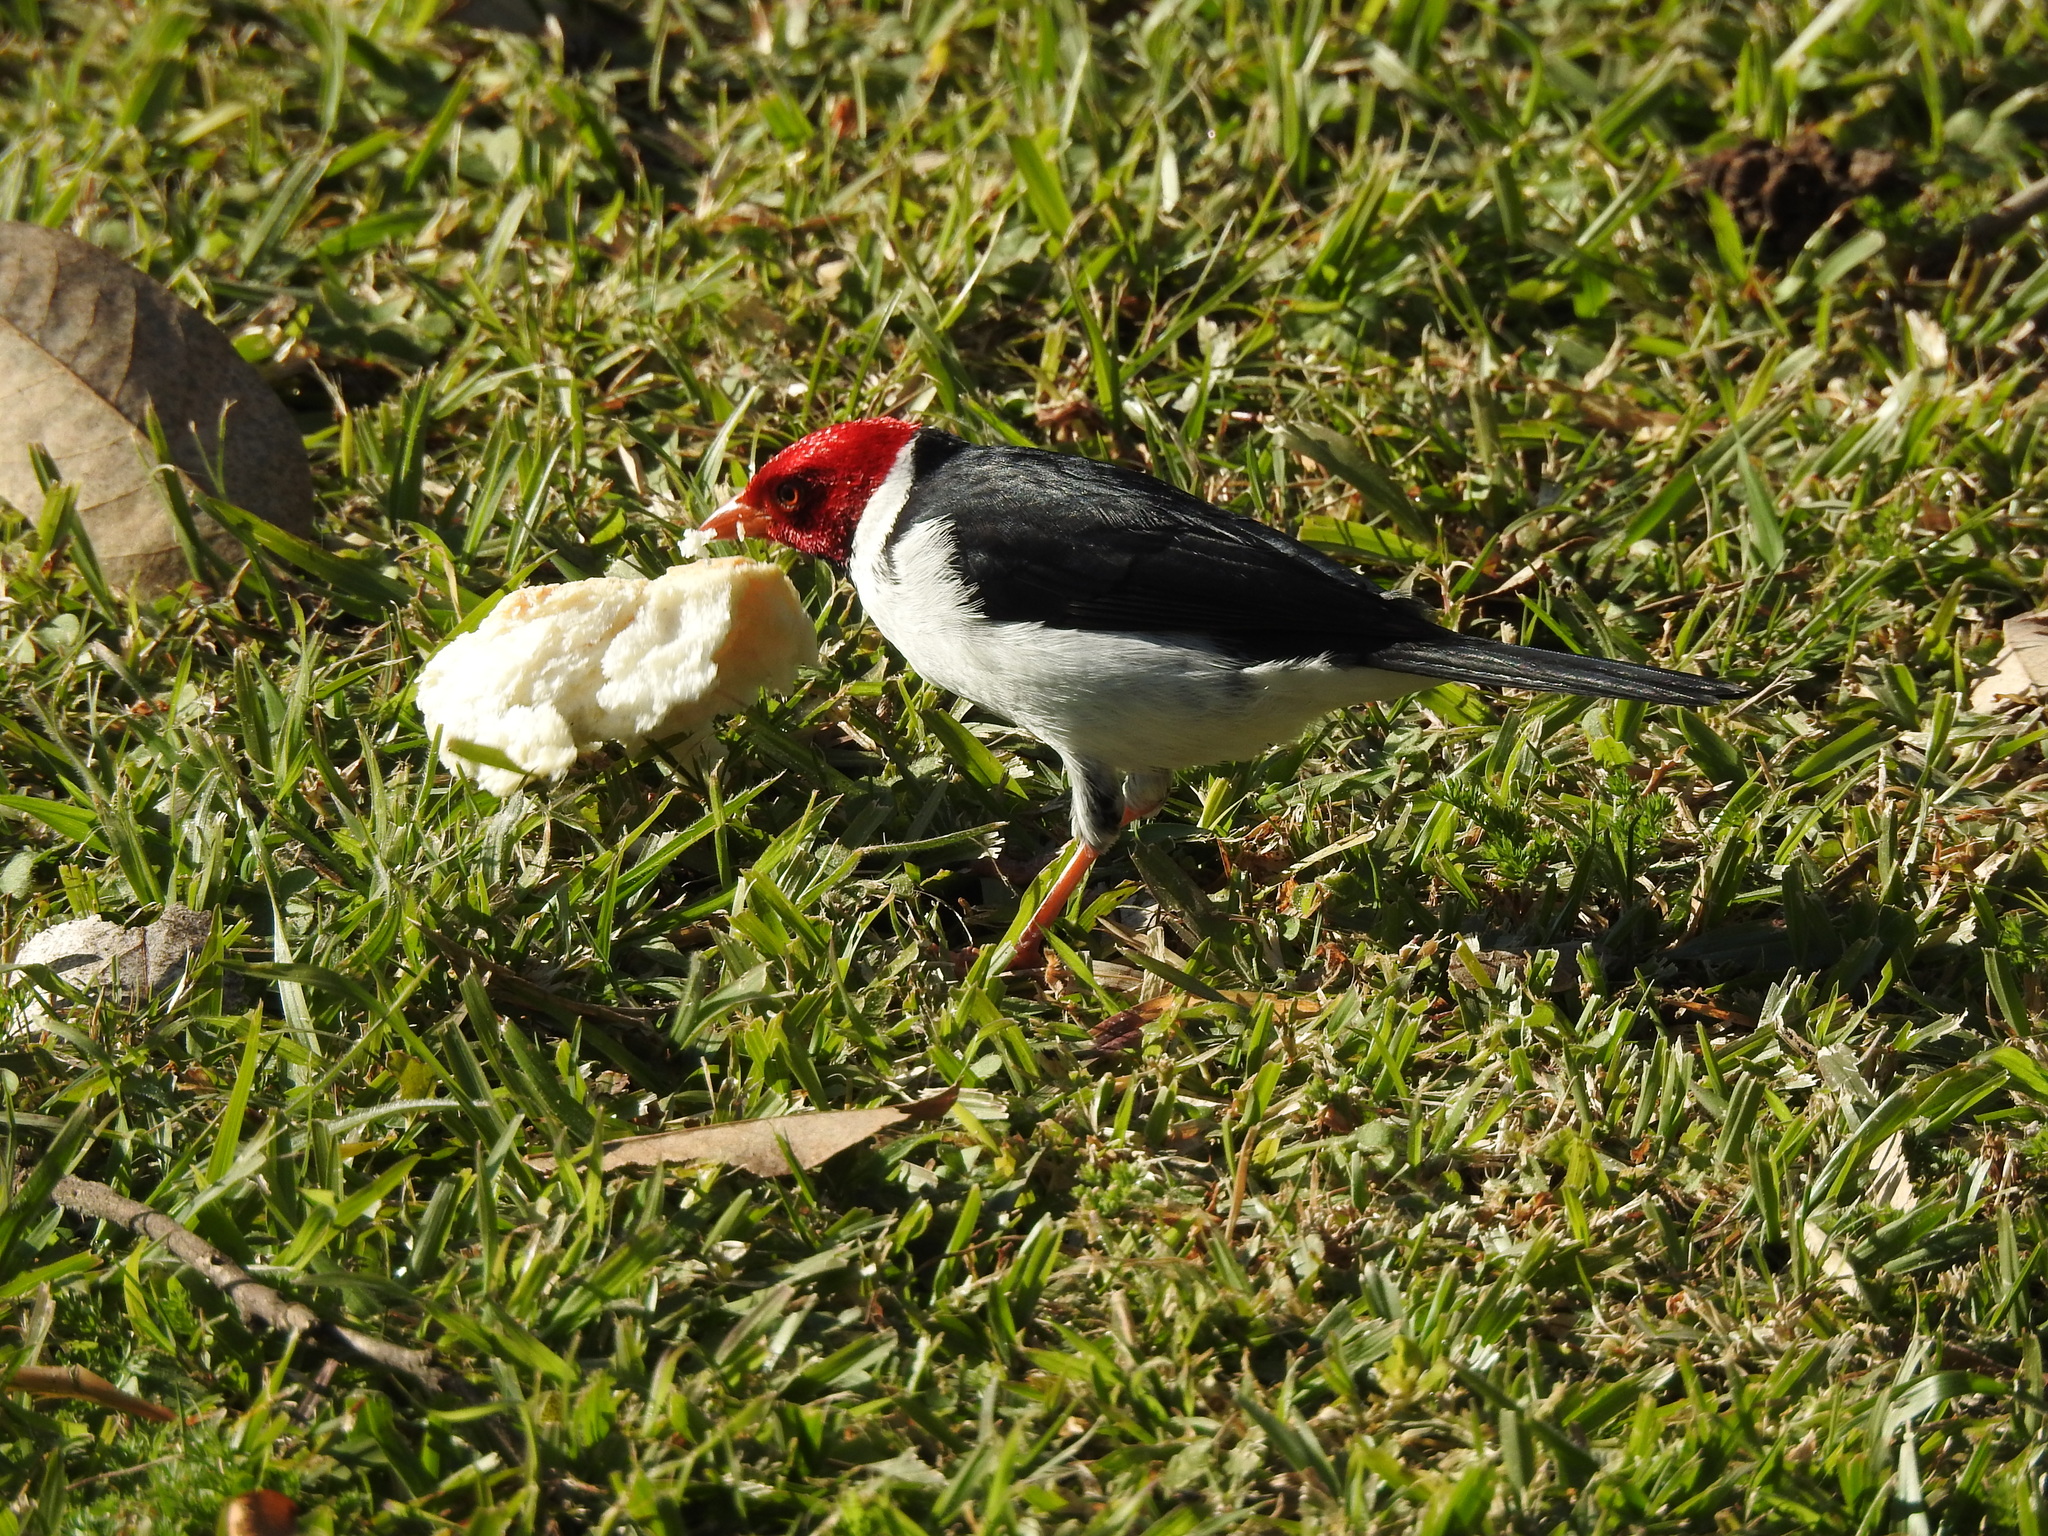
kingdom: Animalia
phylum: Chordata
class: Aves
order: Passeriformes
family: Thraupidae
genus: Paroaria
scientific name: Paroaria capitata
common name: Yellow-billed cardinal
